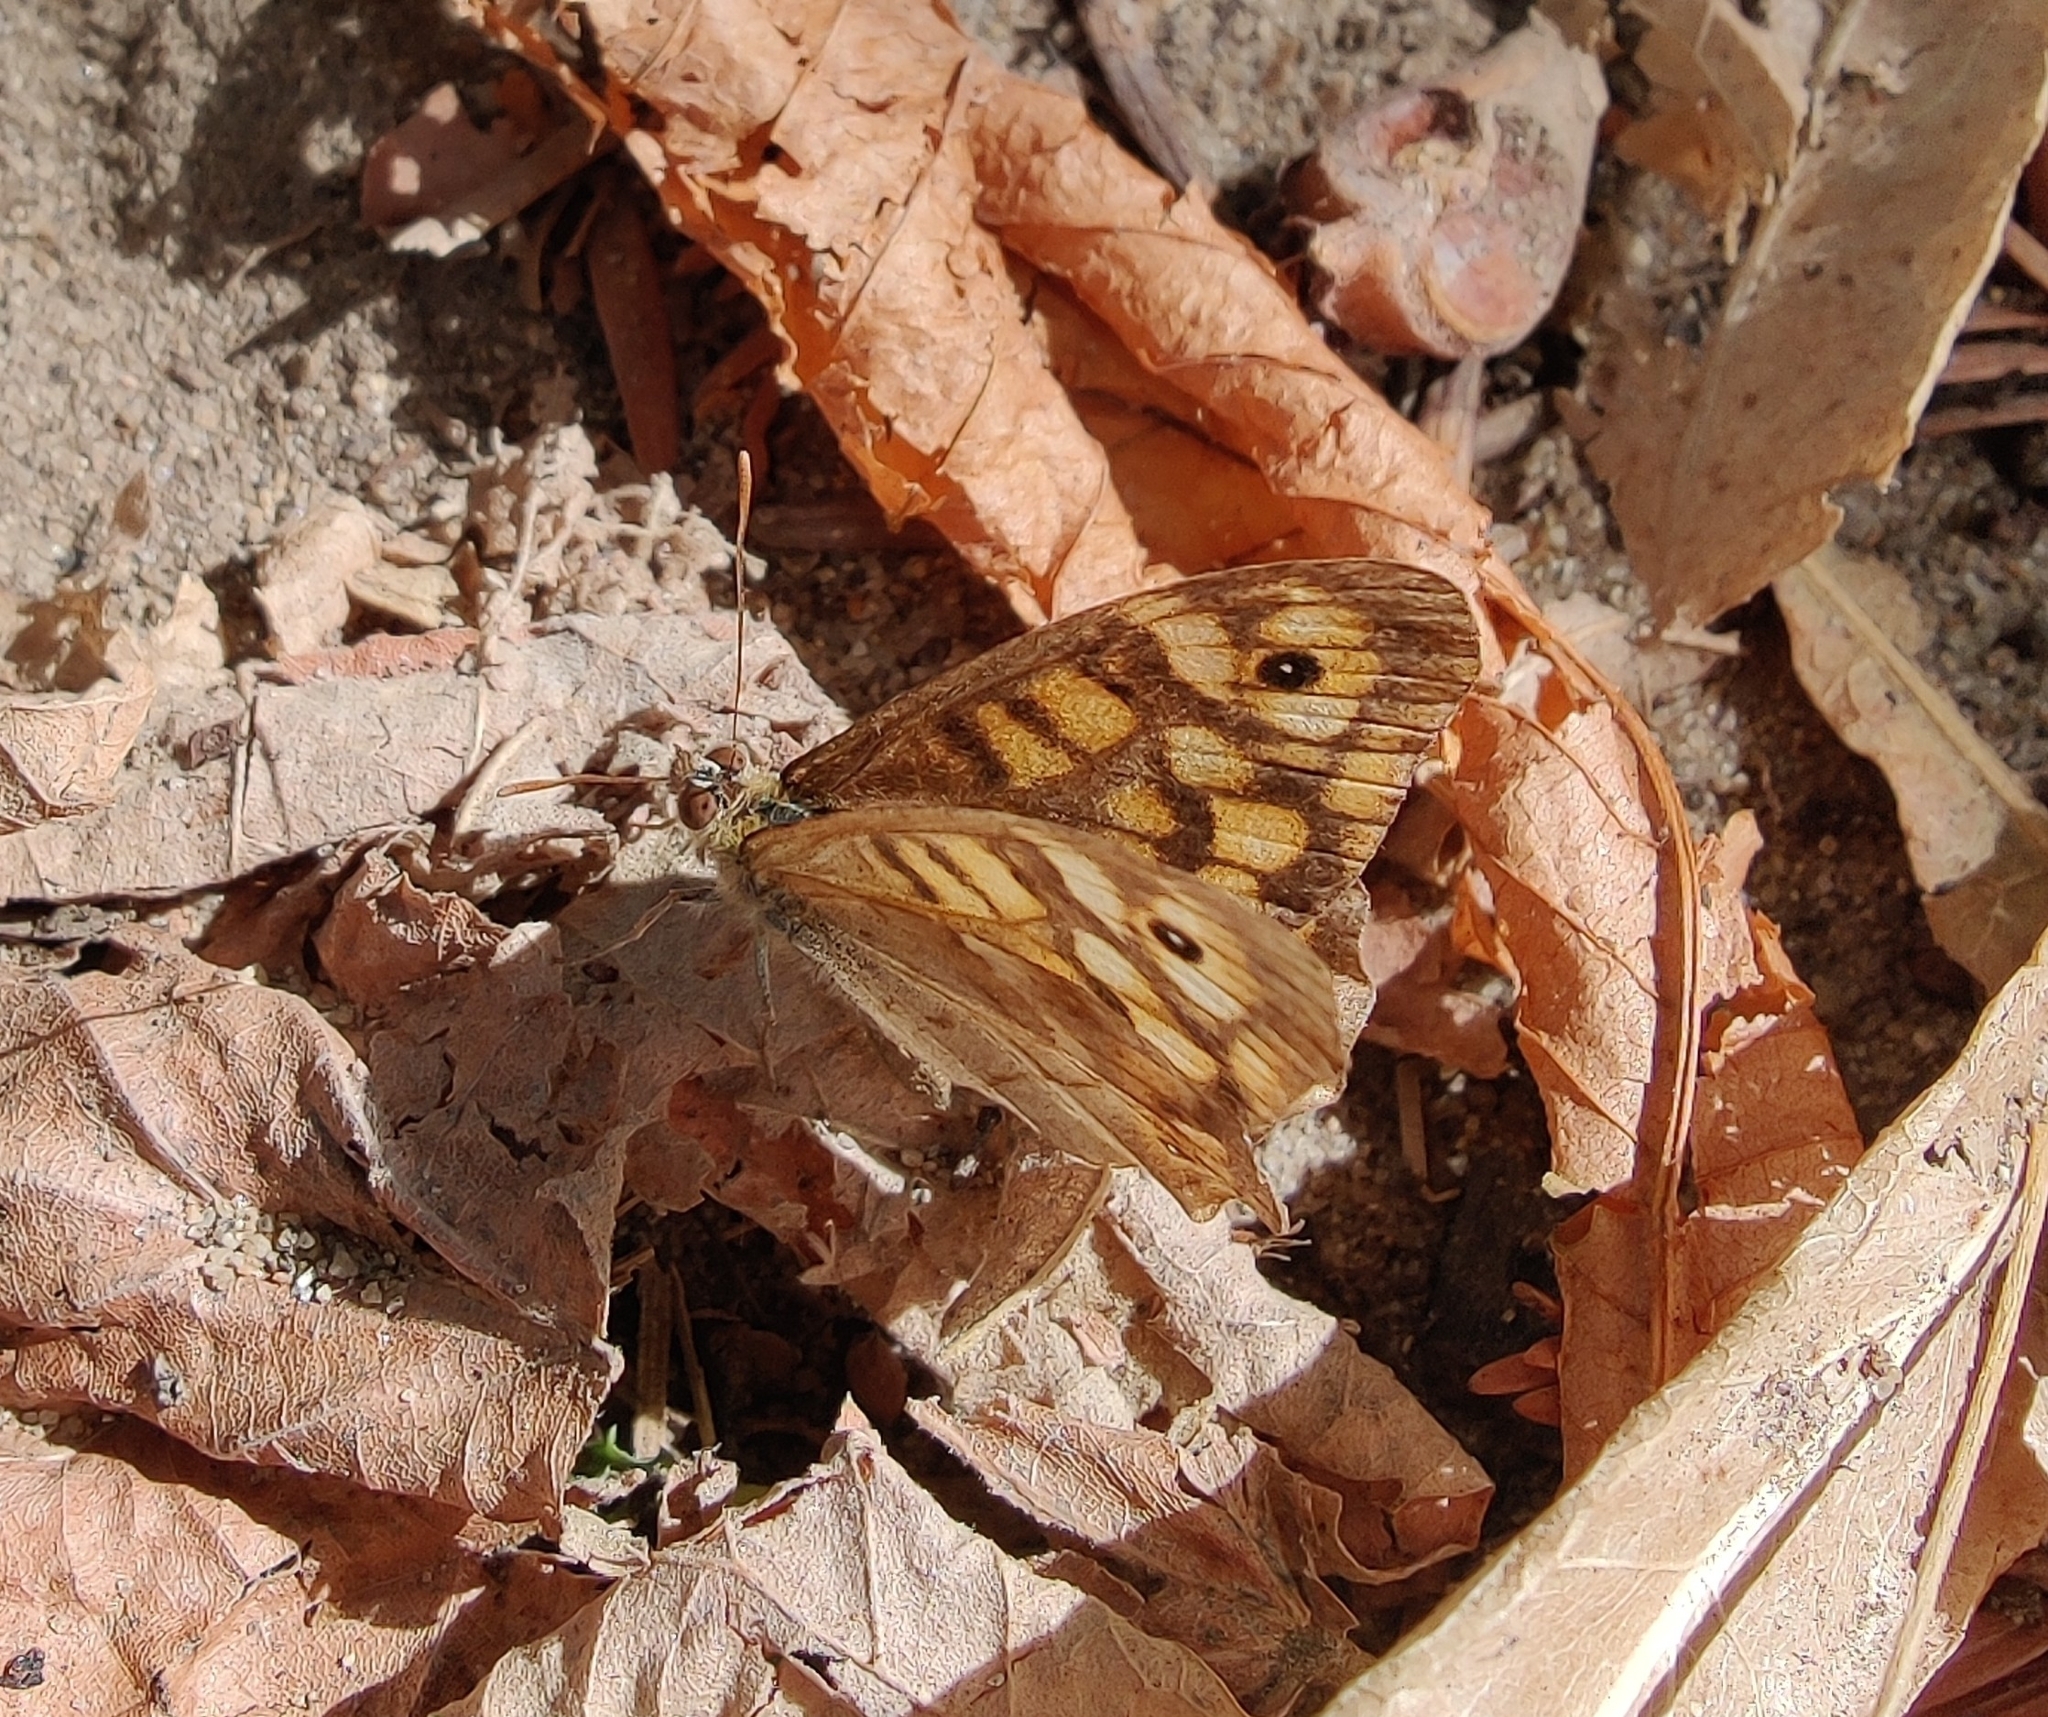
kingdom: Animalia
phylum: Arthropoda
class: Insecta
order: Lepidoptera
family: Nymphalidae
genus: Pararge
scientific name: Pararge aegeria
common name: Speckled wood
